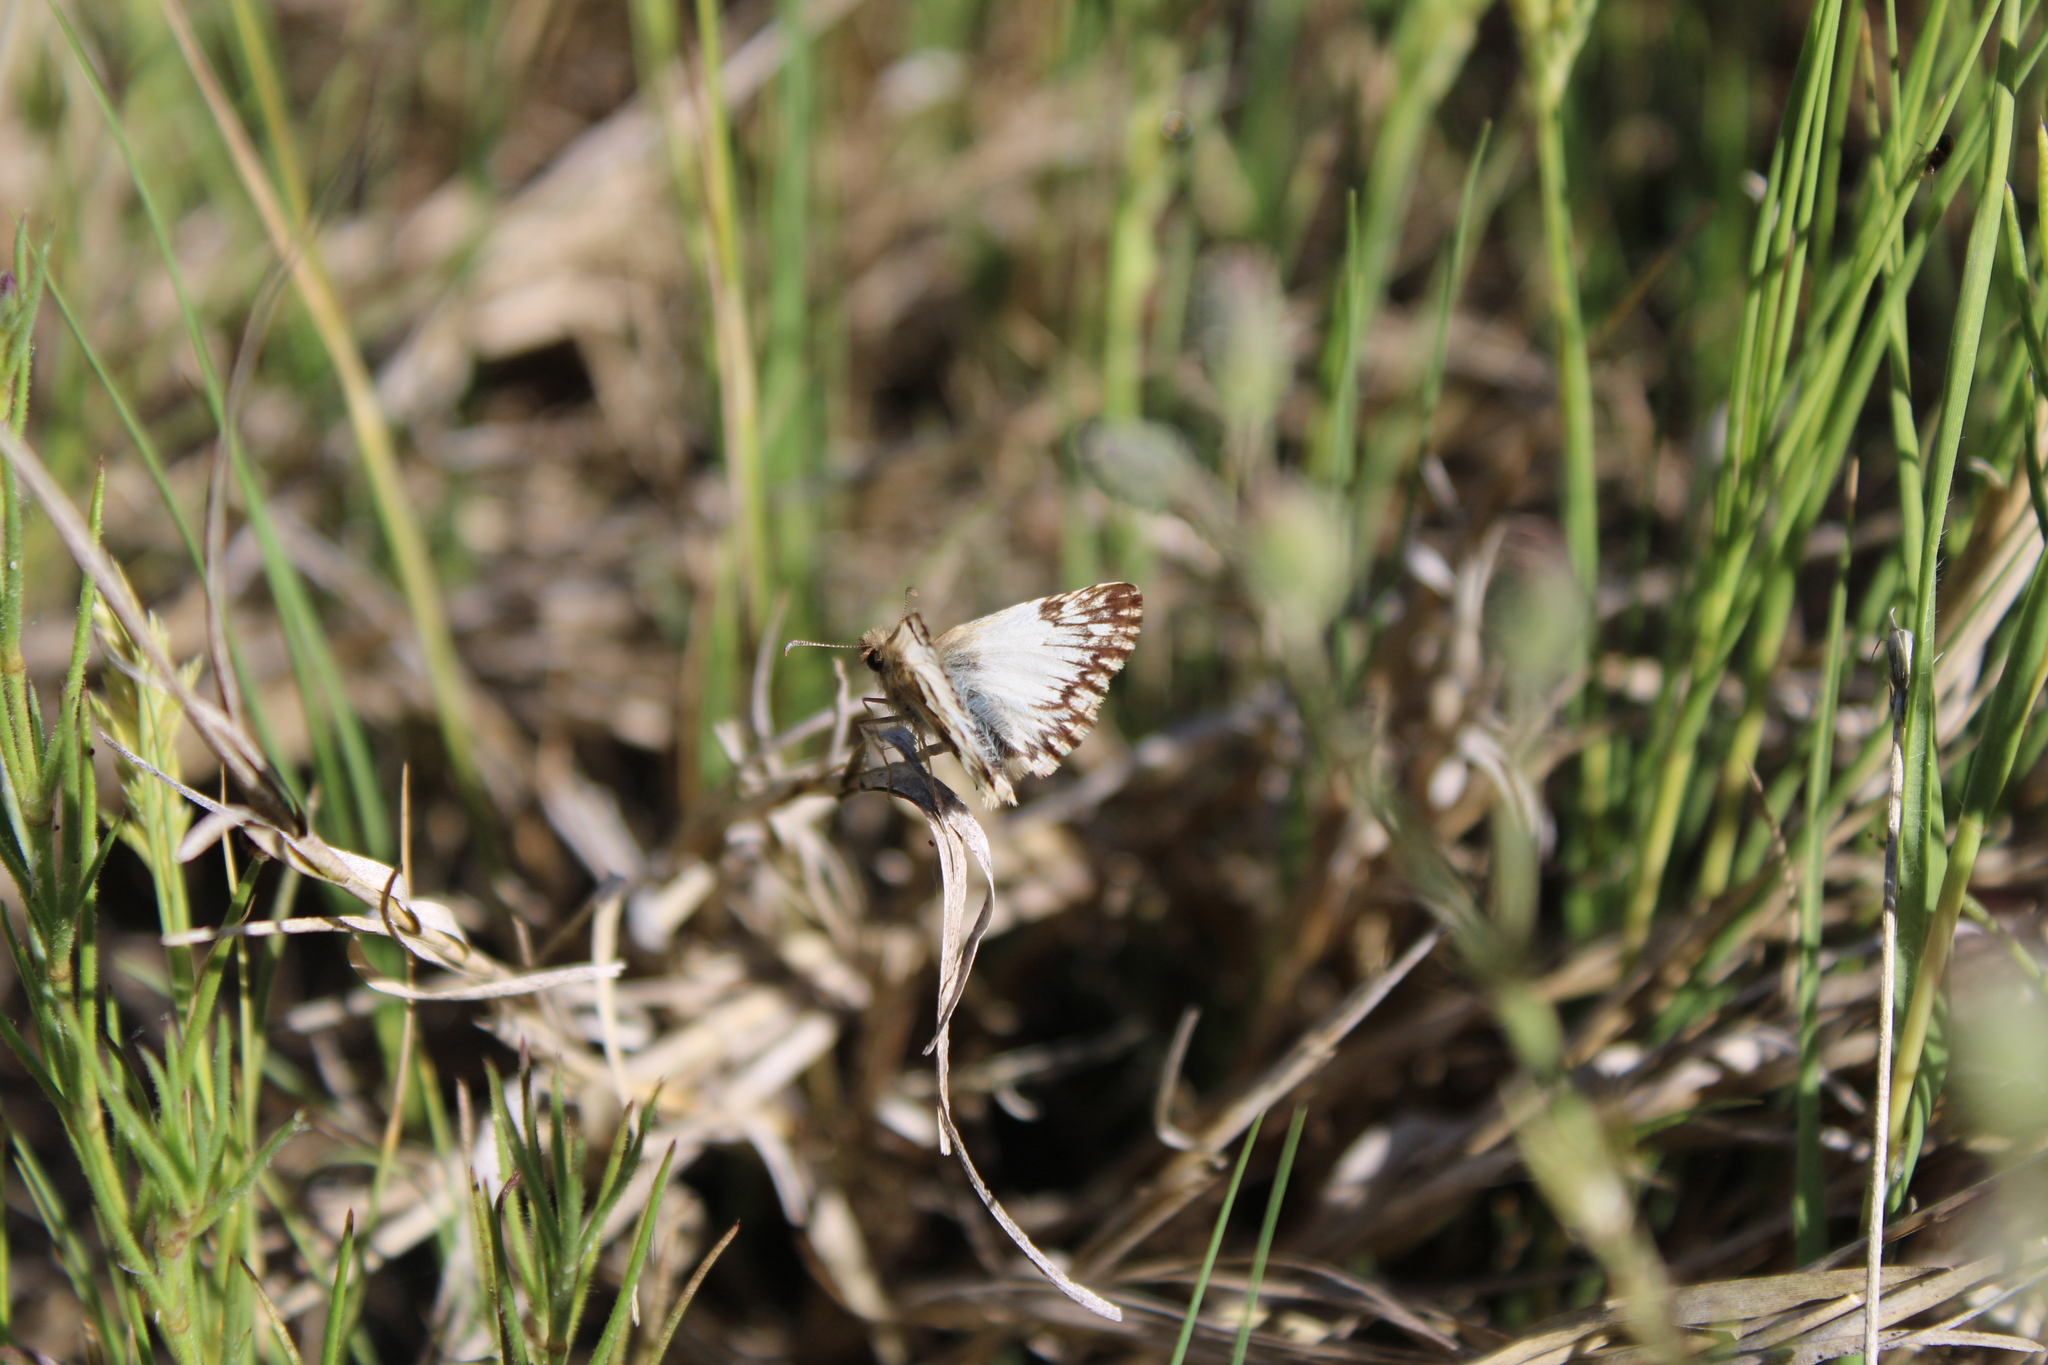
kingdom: Animalia
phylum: Arthropoda
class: Insecta
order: Lepidoptera
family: Hesperiidae
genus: Heliopetes
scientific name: Heliopetes omrina
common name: Stained white-skipper
